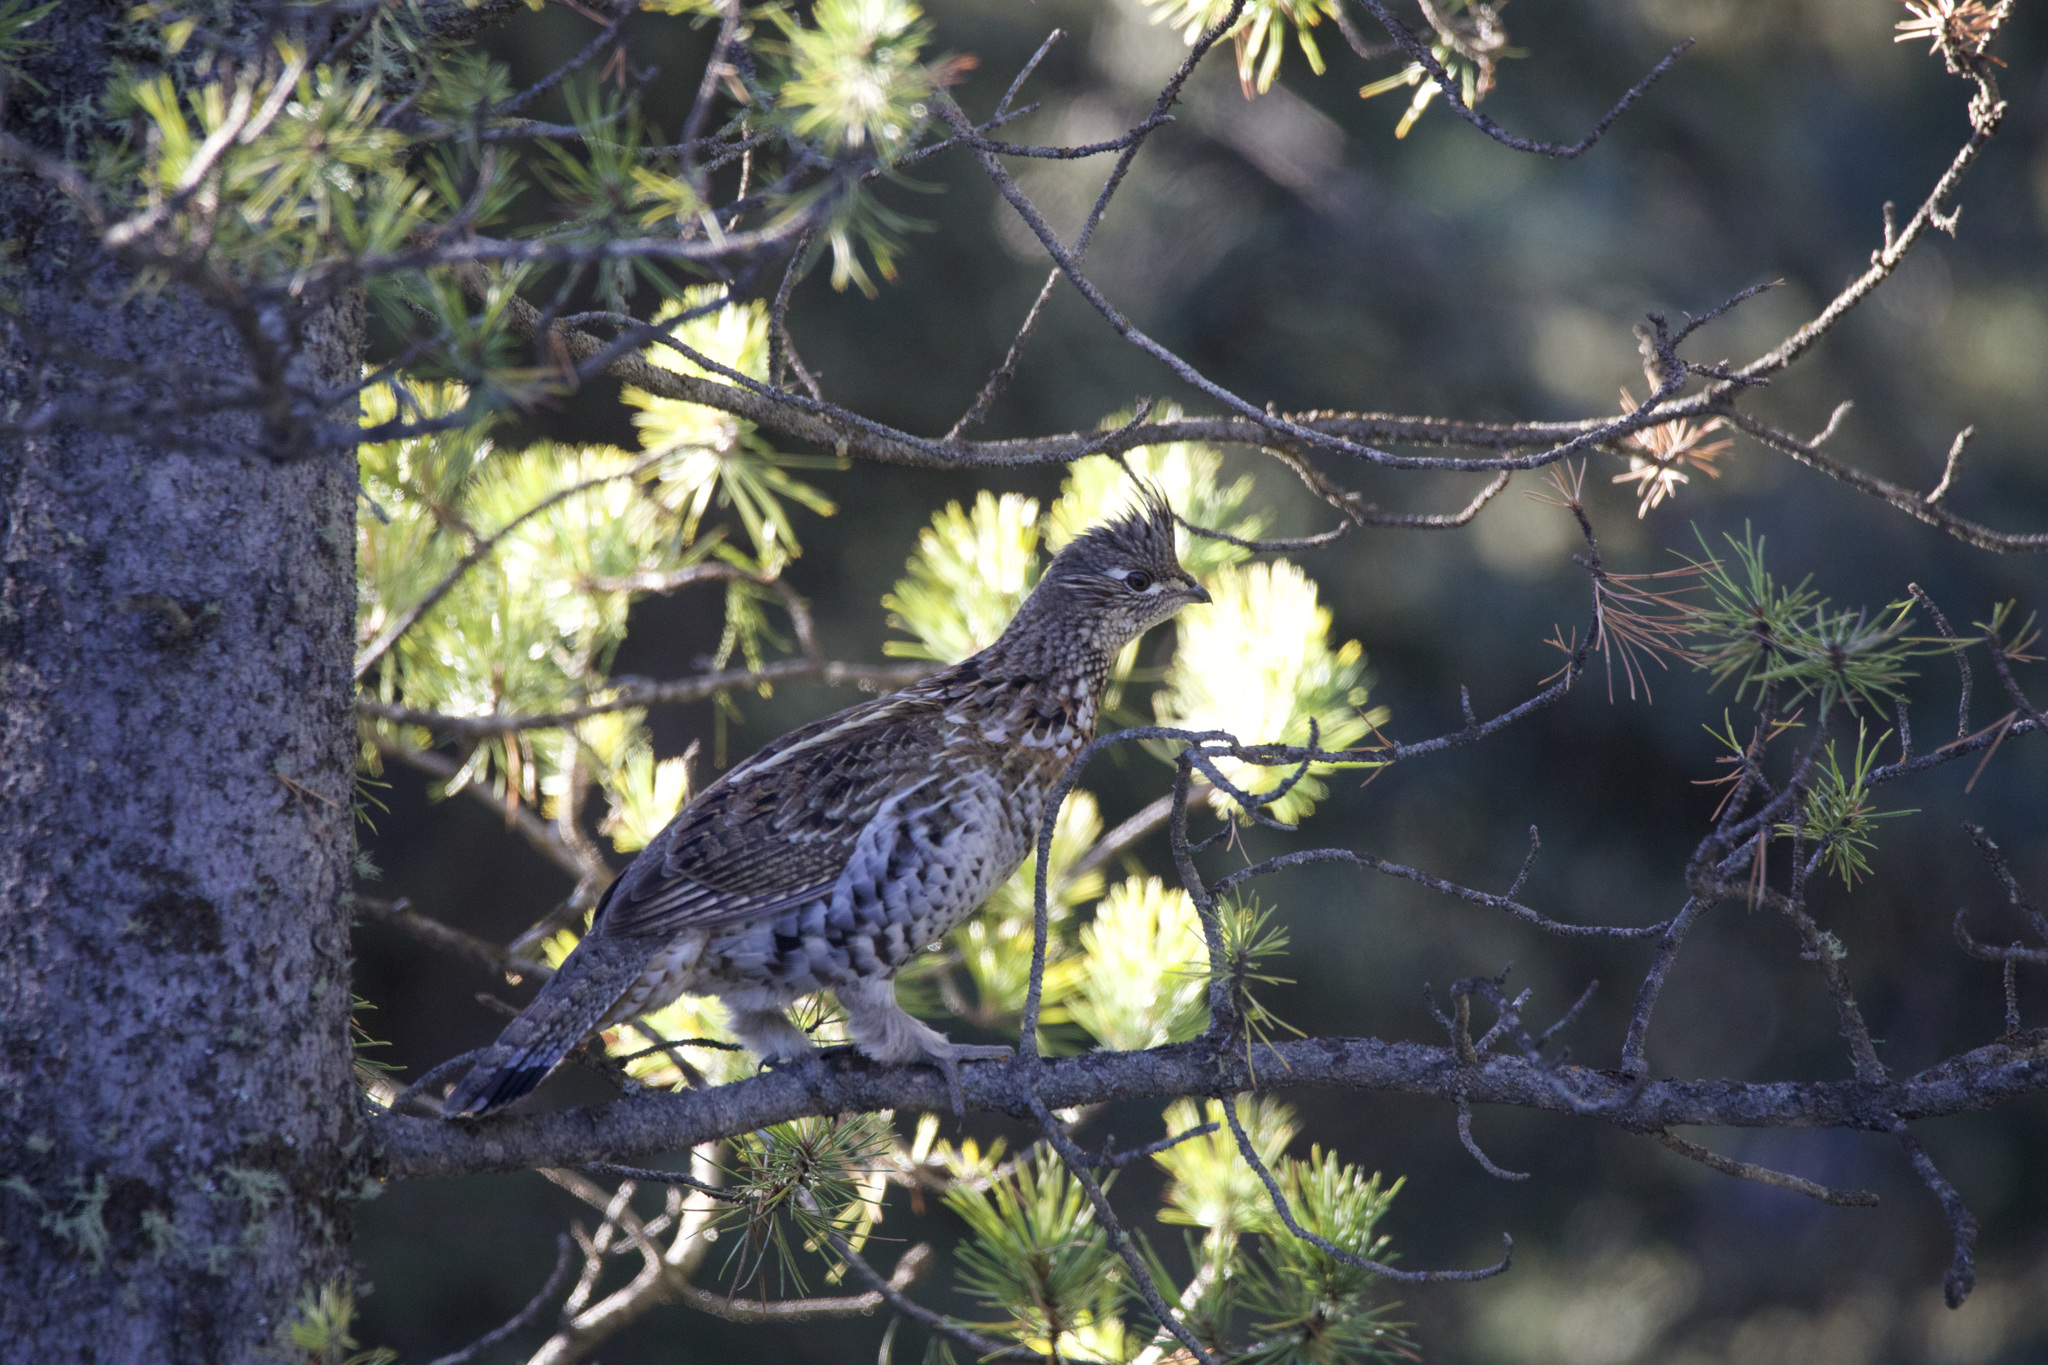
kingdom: Animalia
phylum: Chordata
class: Aves
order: Galliformes
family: Phasianidae
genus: Bonasa
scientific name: Bonasa umbellus
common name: Ruffed grouse
